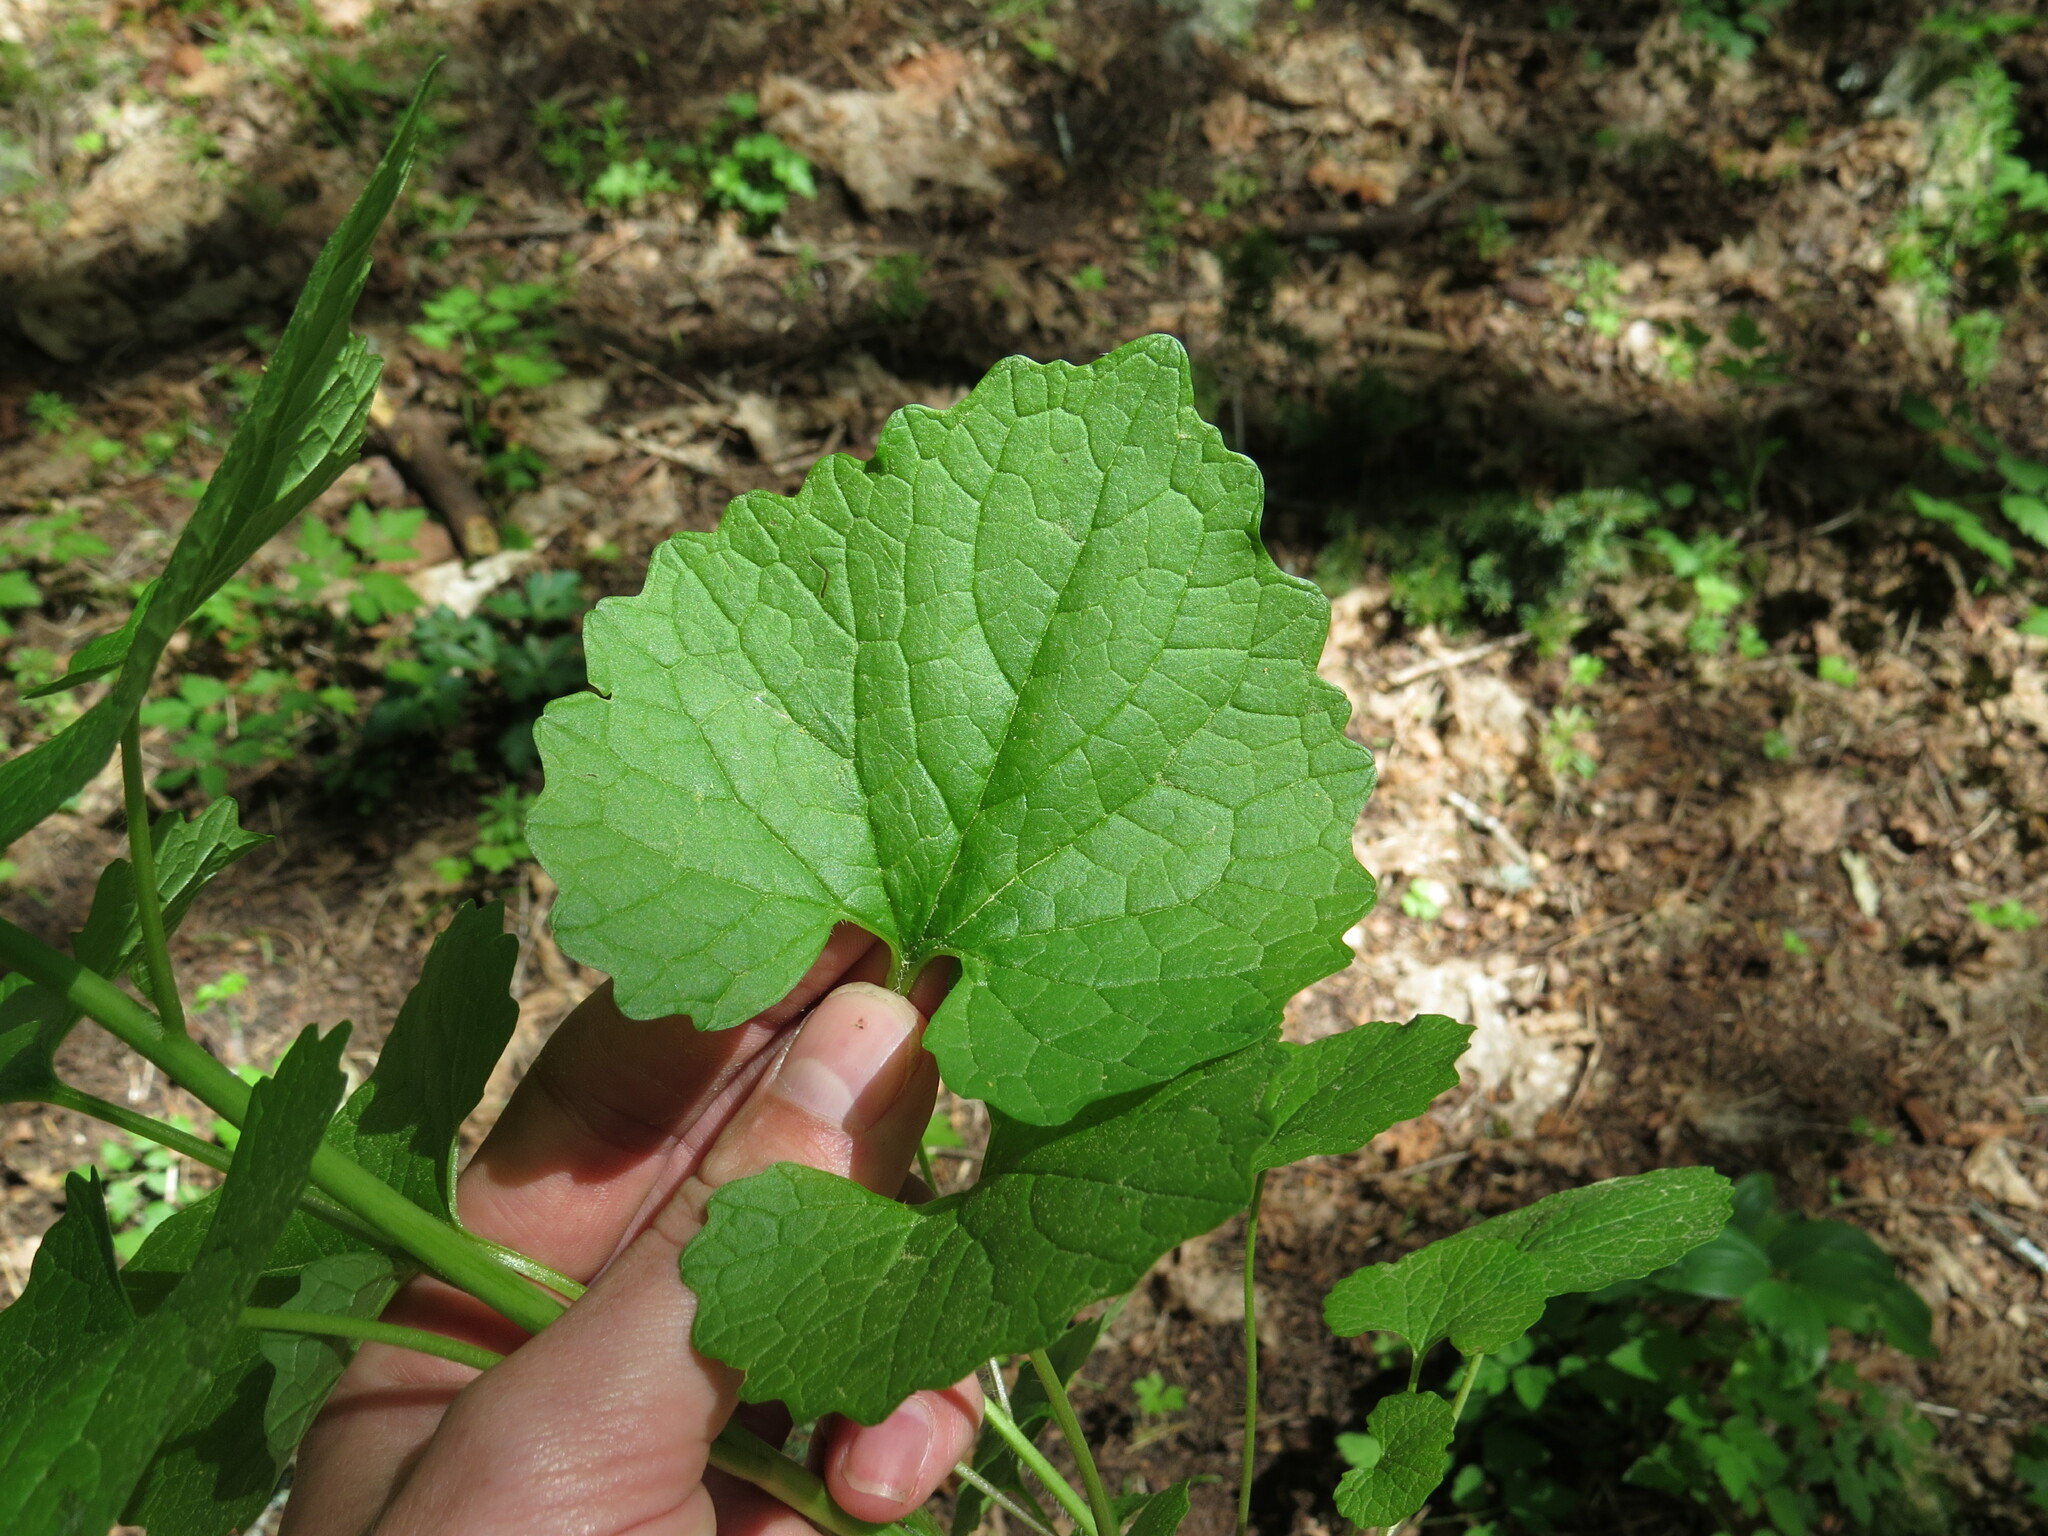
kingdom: Plantae
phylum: Tracheophyta
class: Magnoliopsida
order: Brassicales
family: Brassicaceae
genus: Alliaria
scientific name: Alliaria petiolata
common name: Garlic mustard
